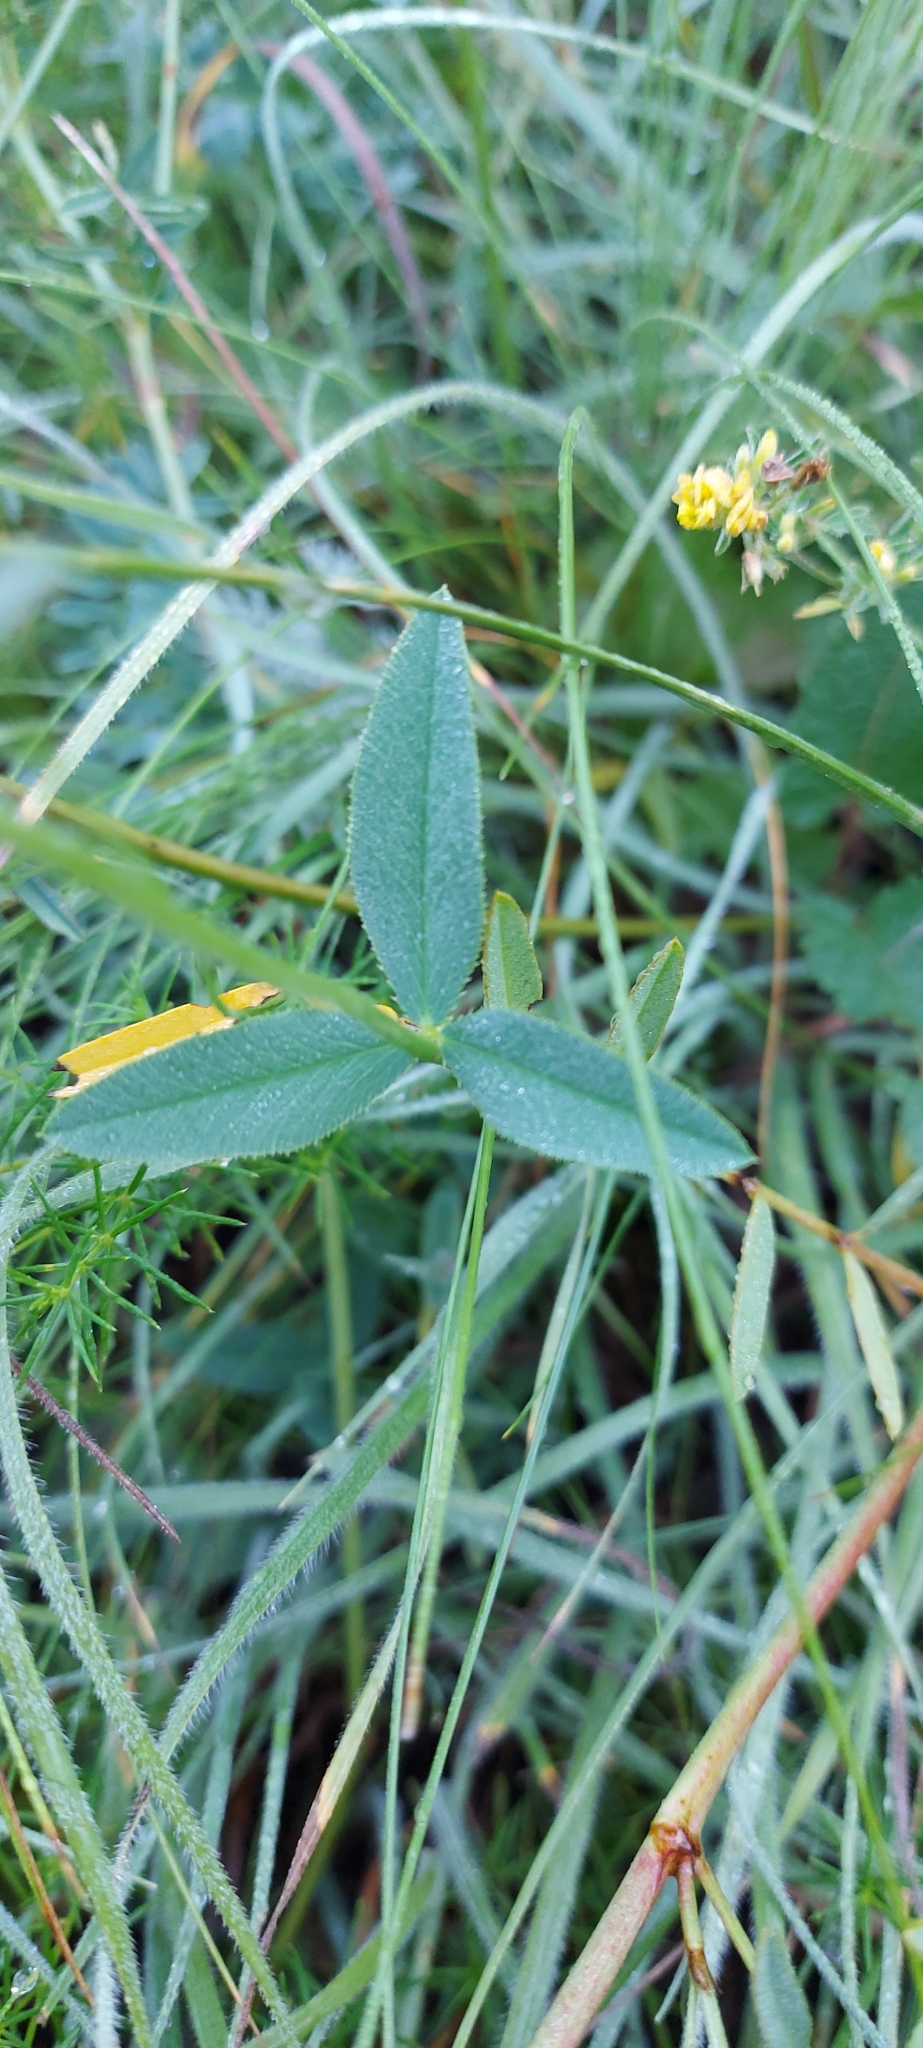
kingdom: Plantae
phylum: Tracheophyta
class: Magnoliopsida
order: Fabales
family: Fabaceae
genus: Coronilla
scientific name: Coronilla varia
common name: Crownvetch
